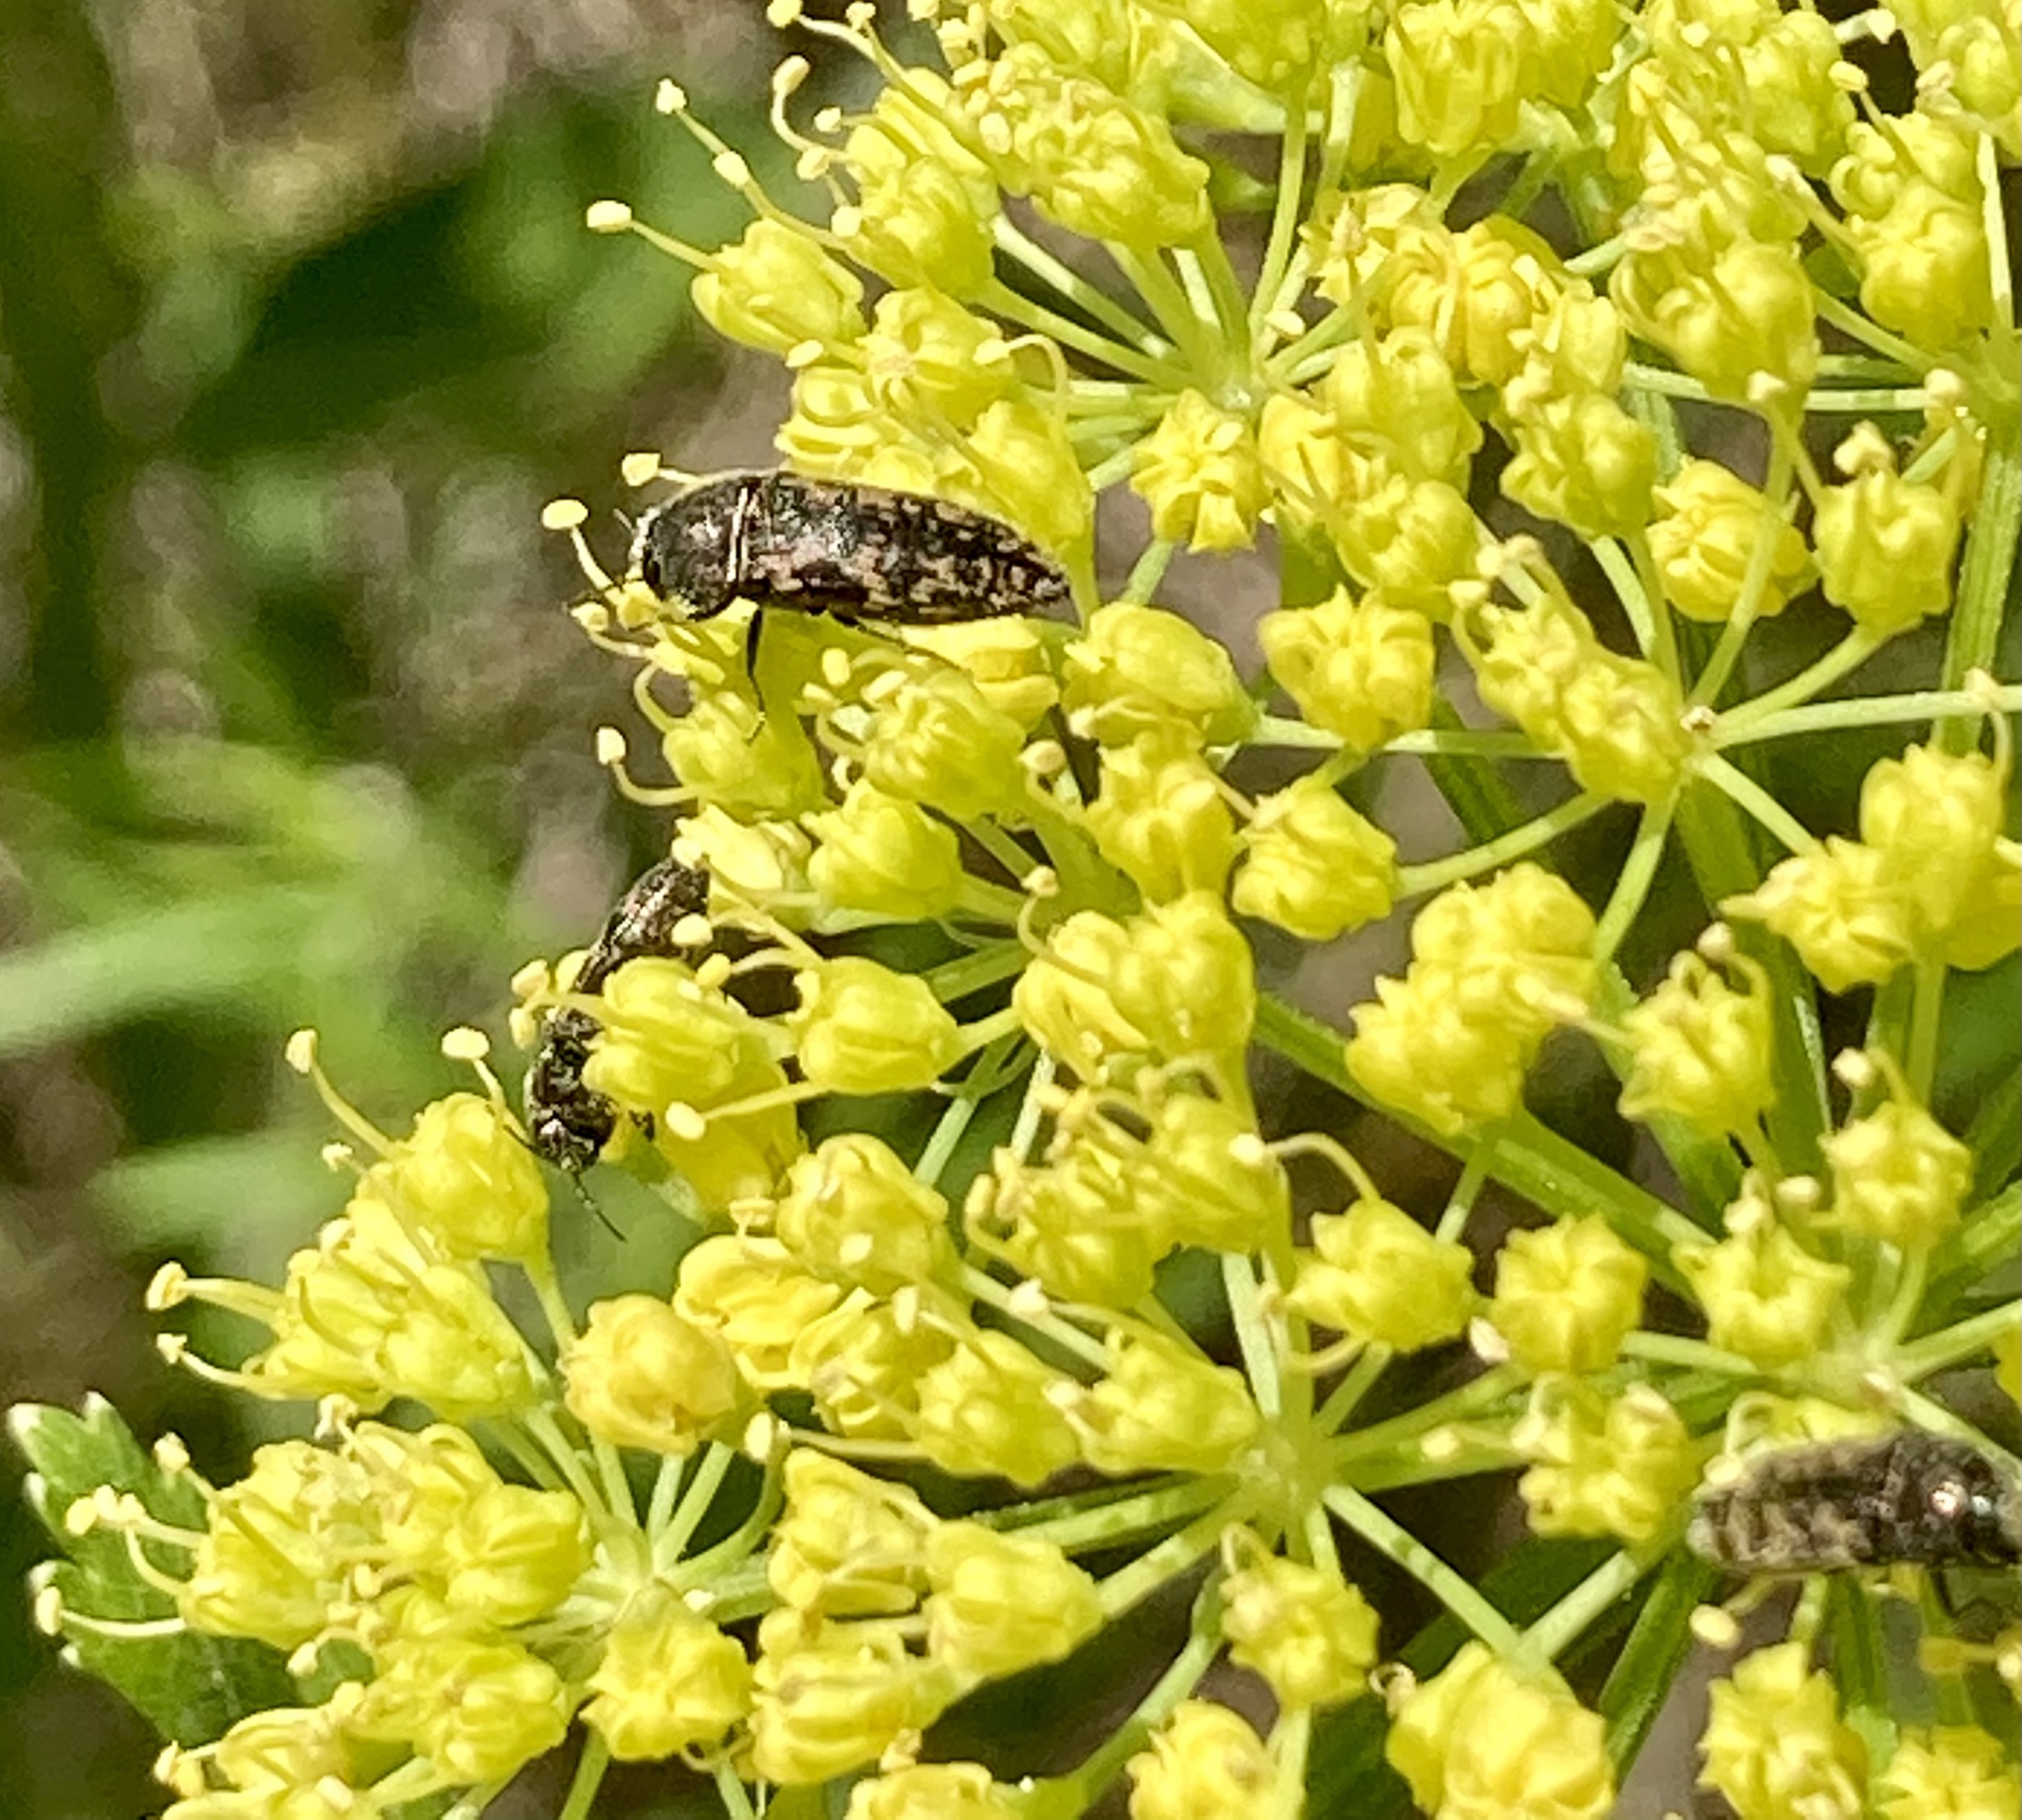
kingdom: Animalia
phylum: Arthropoda
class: Insecta
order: Coleoptera
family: Buprestidae
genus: Acmaeodera
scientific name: Acmaeodera neglecta
